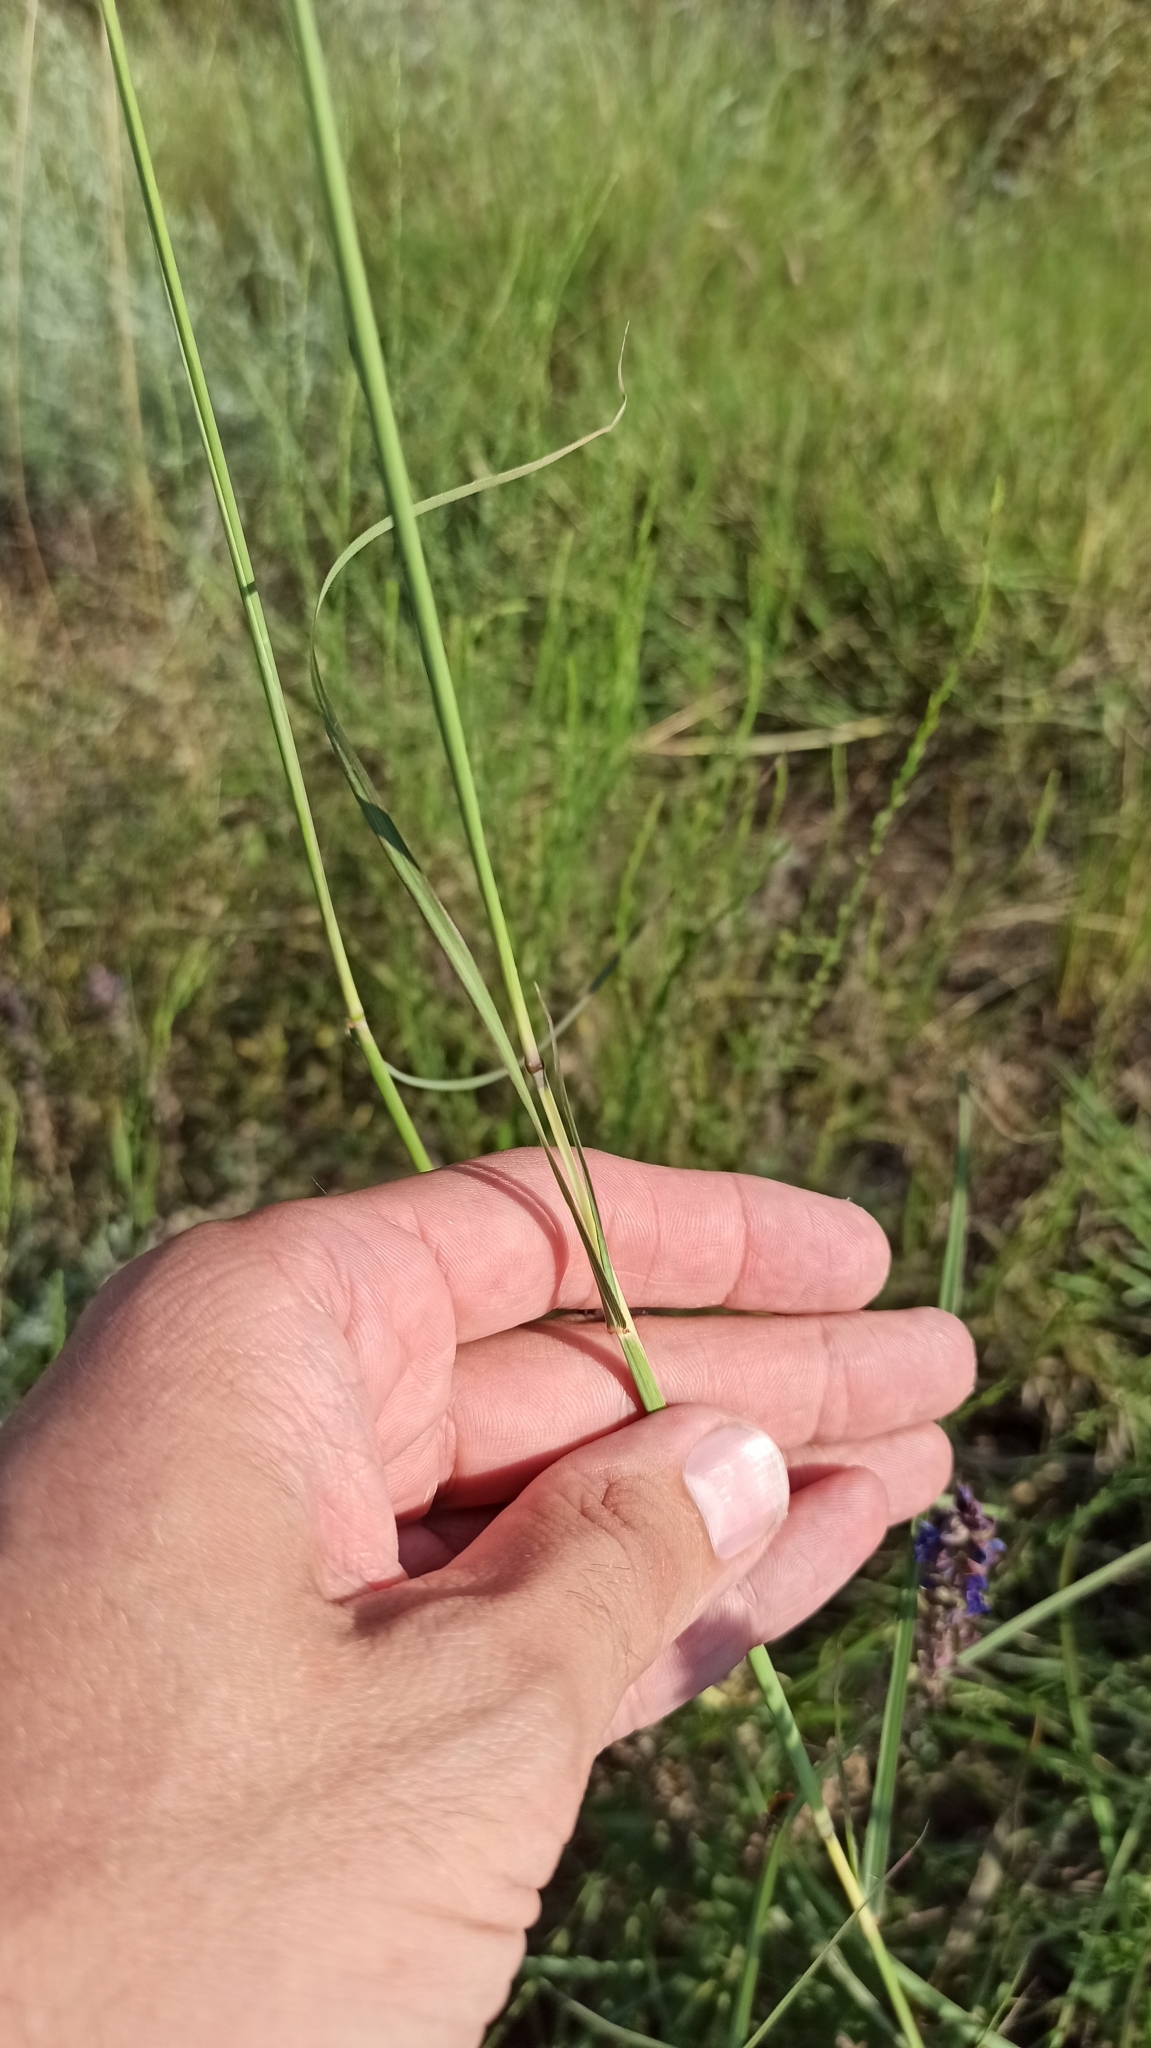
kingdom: Plantae
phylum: Tracheophyta
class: Liliopsida
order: Poales
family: Poaceae
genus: Bothriochloa
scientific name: Bothriochloa ischaemum
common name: Yellow bluestem
